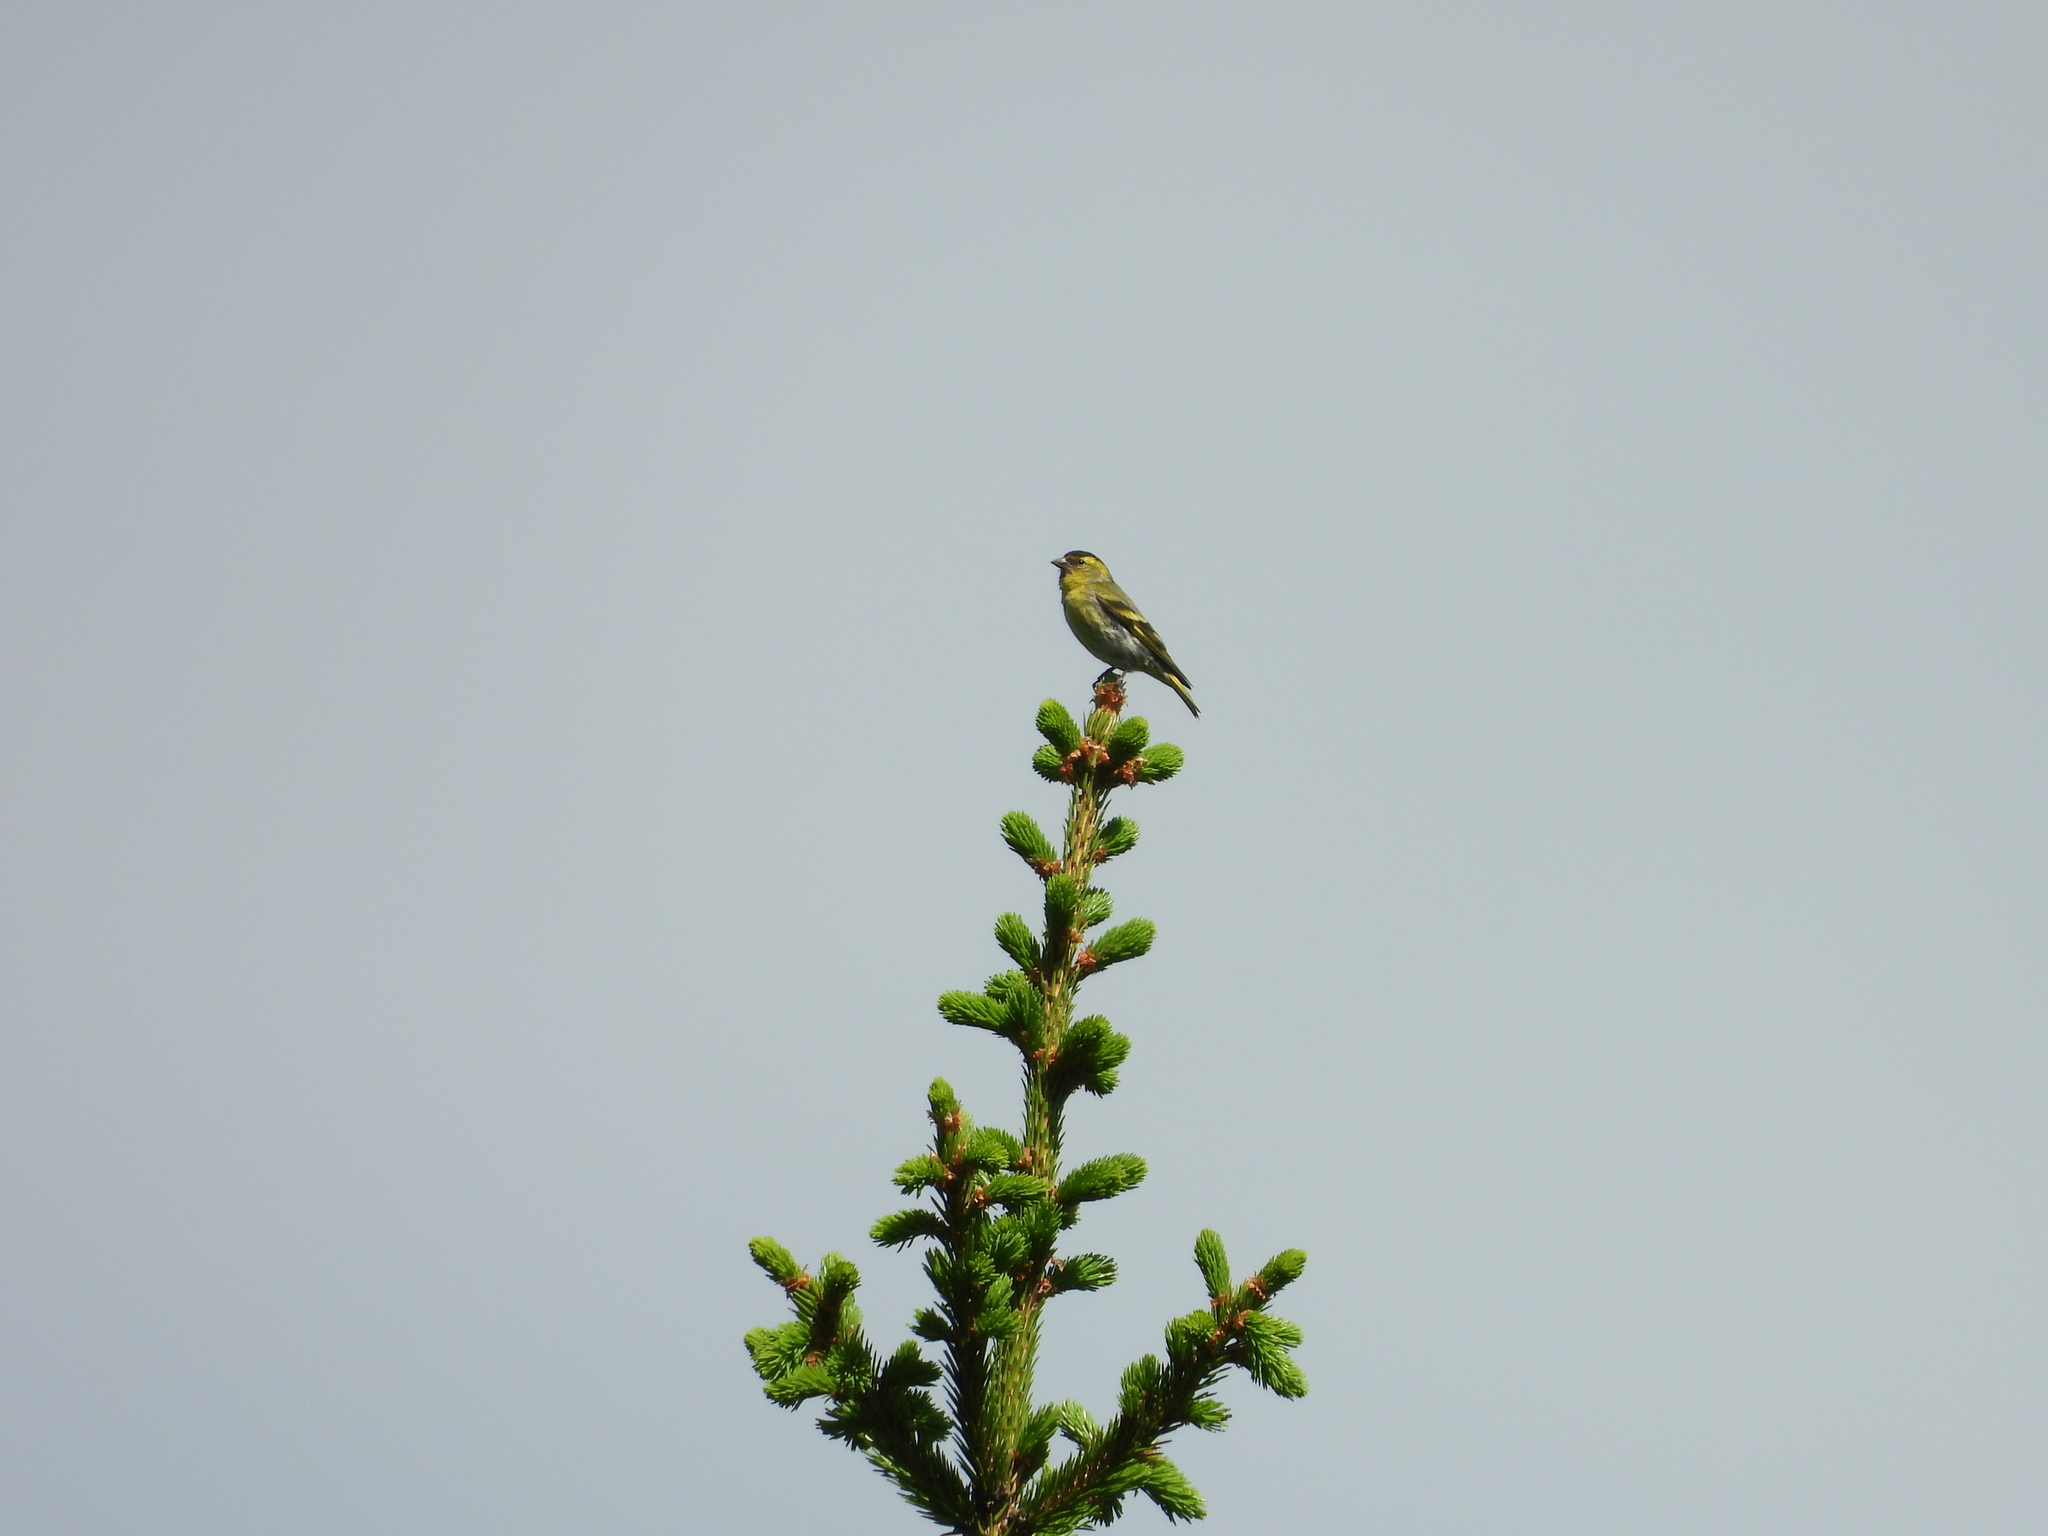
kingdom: Animalia
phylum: Chordata
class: Aves
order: Passeriformes
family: Fringillidae
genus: Spinus
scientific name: Spinus spinus
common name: Eurasian siskin
